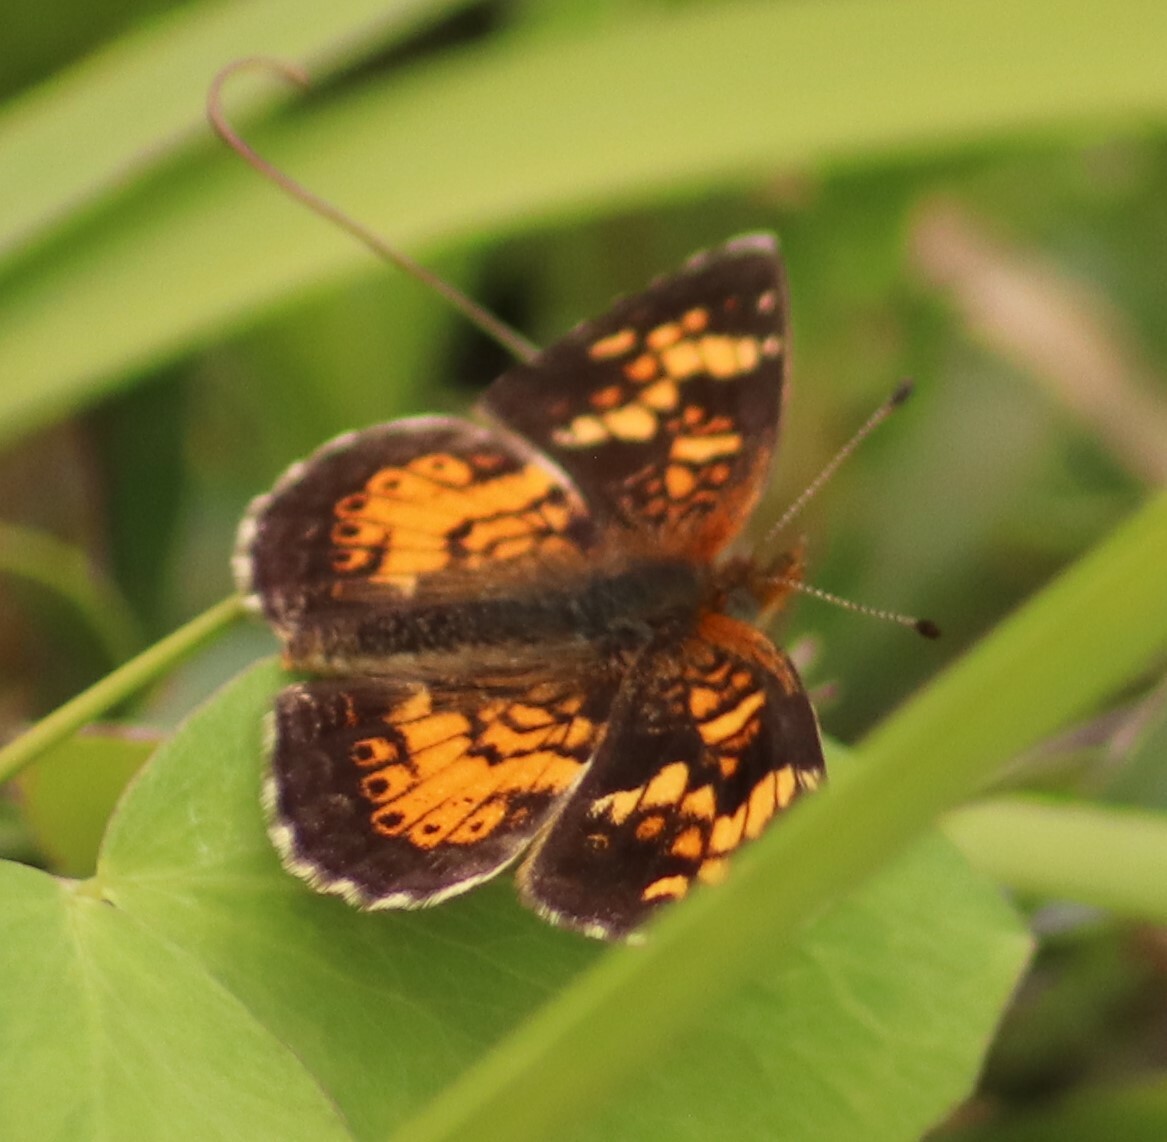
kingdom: Animalia
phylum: Arthropoda
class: Insecta
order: Lepidoptera
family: Nymphalidae
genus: Phyciodes
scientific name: Phyciodes tharos
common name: Pearl crescent
